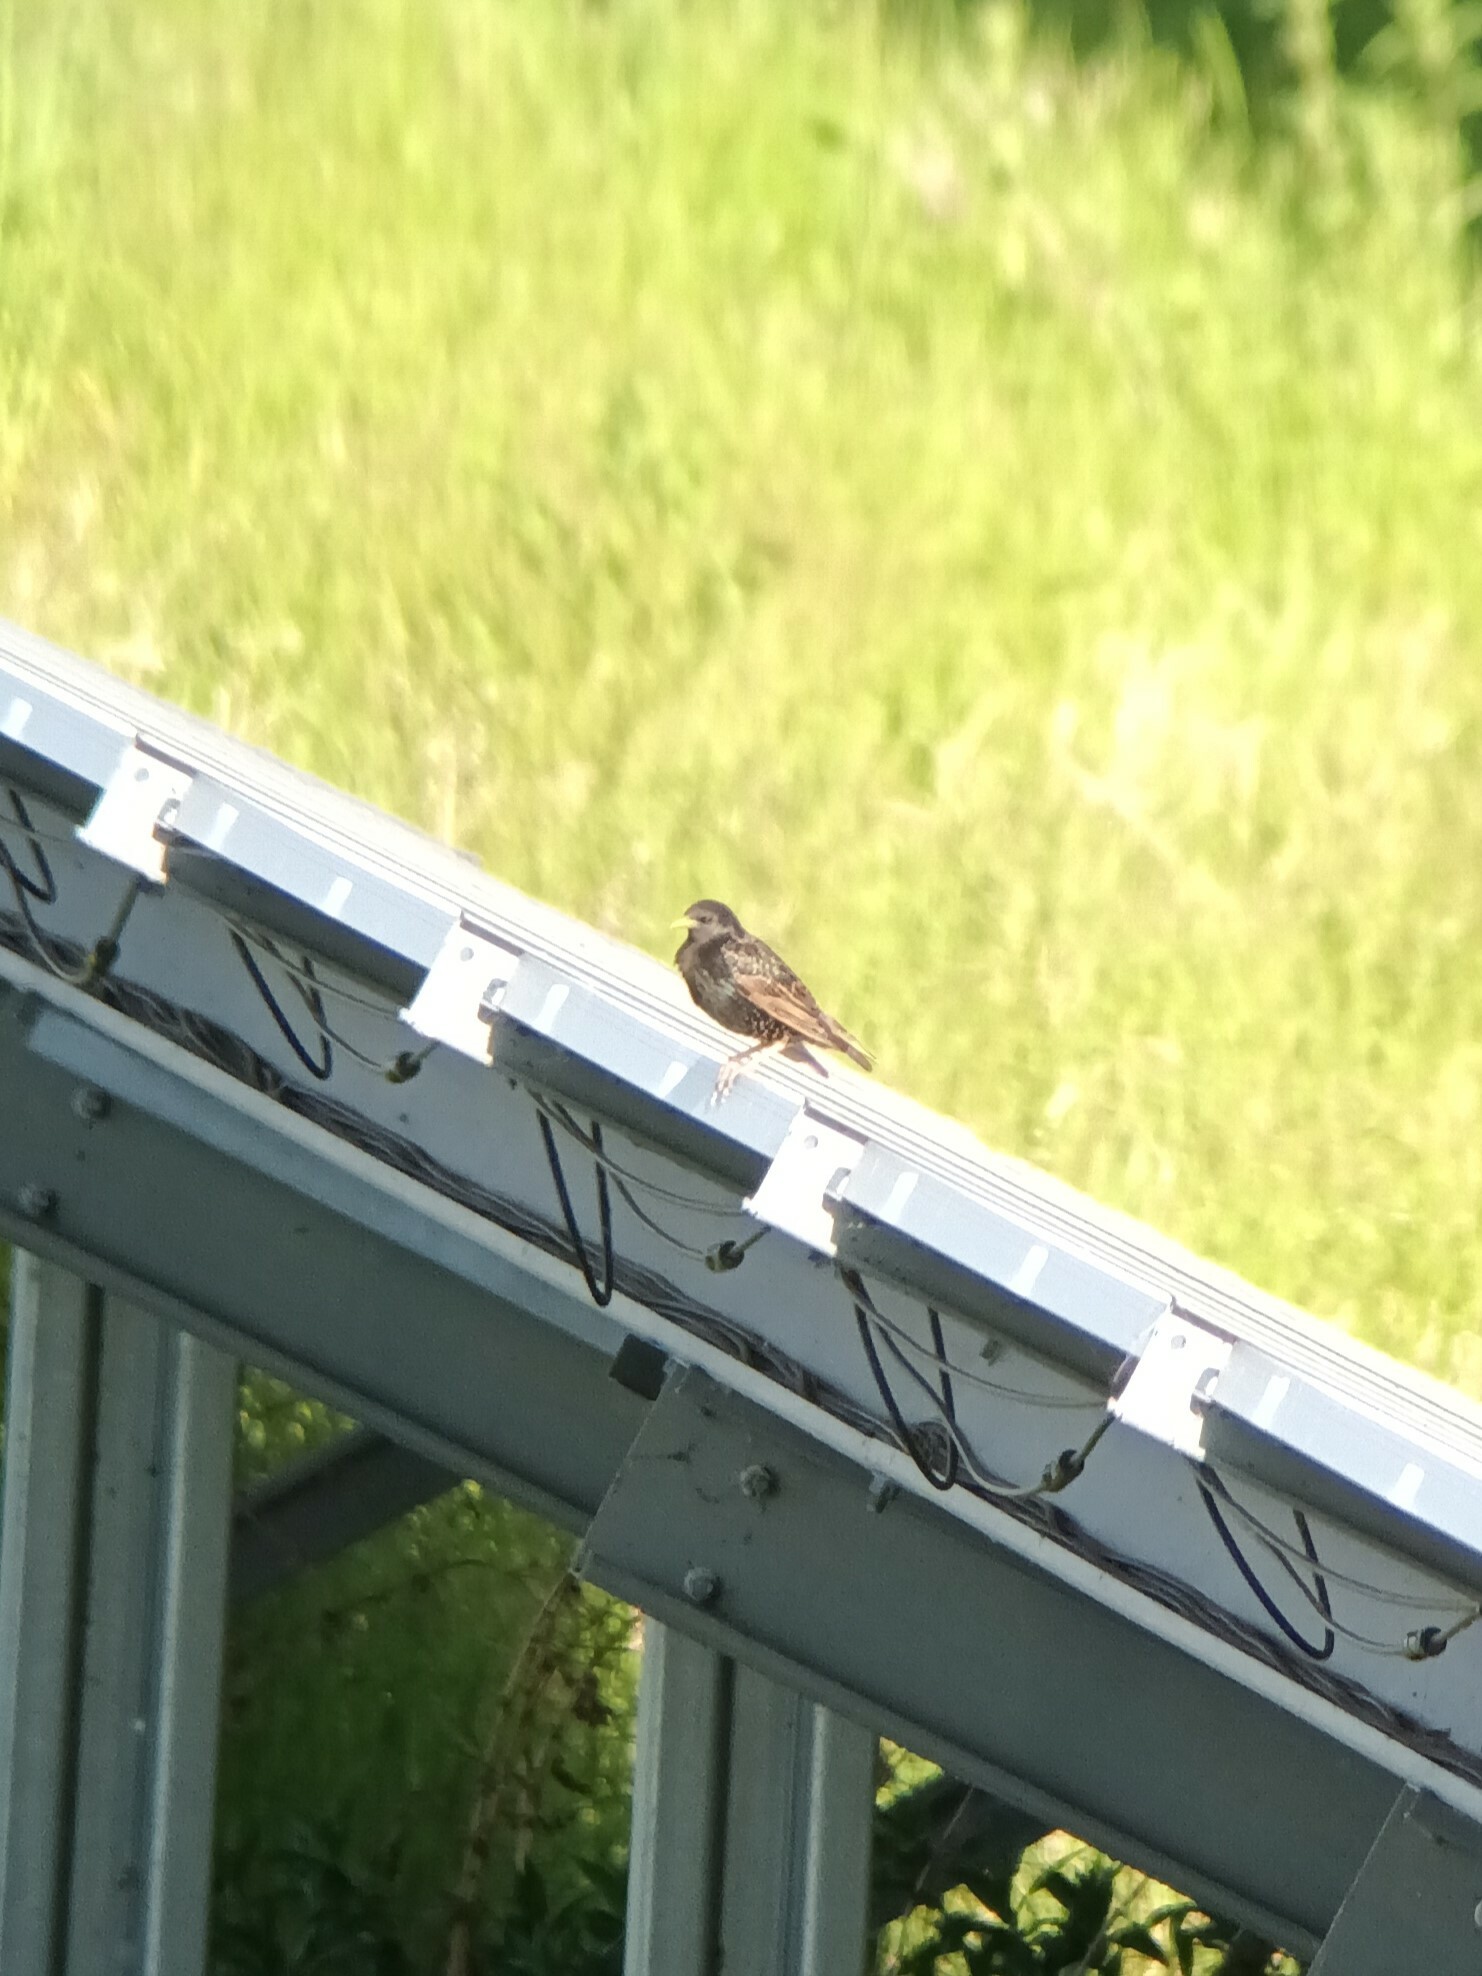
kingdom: Animalia
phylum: Chordata
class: Aves
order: Passeriformes
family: Sturnidae
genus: Sturnus
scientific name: Sturnus vulgaris
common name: Common starling
